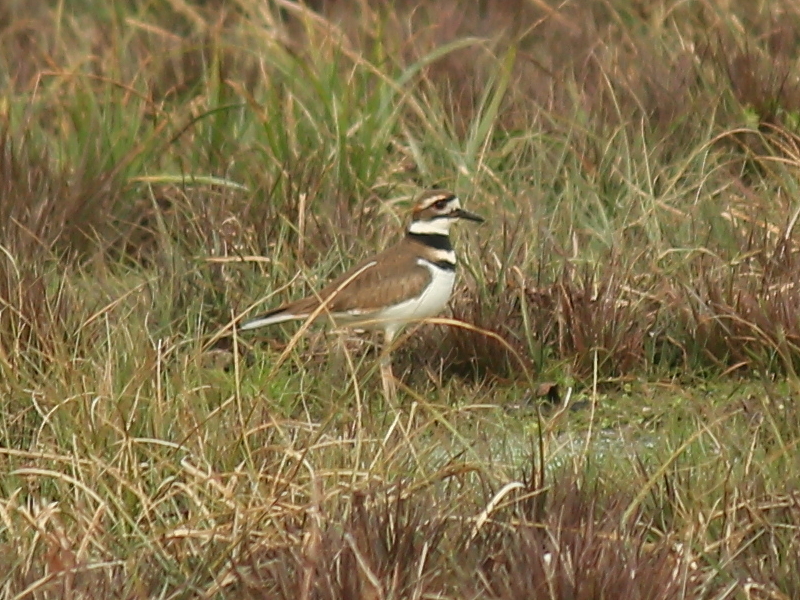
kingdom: Animalia
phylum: Chordata
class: Aves
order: Charadriiformes
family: Charadriidae
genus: Charadrius
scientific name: Charadrius vociferus
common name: Killdeer
